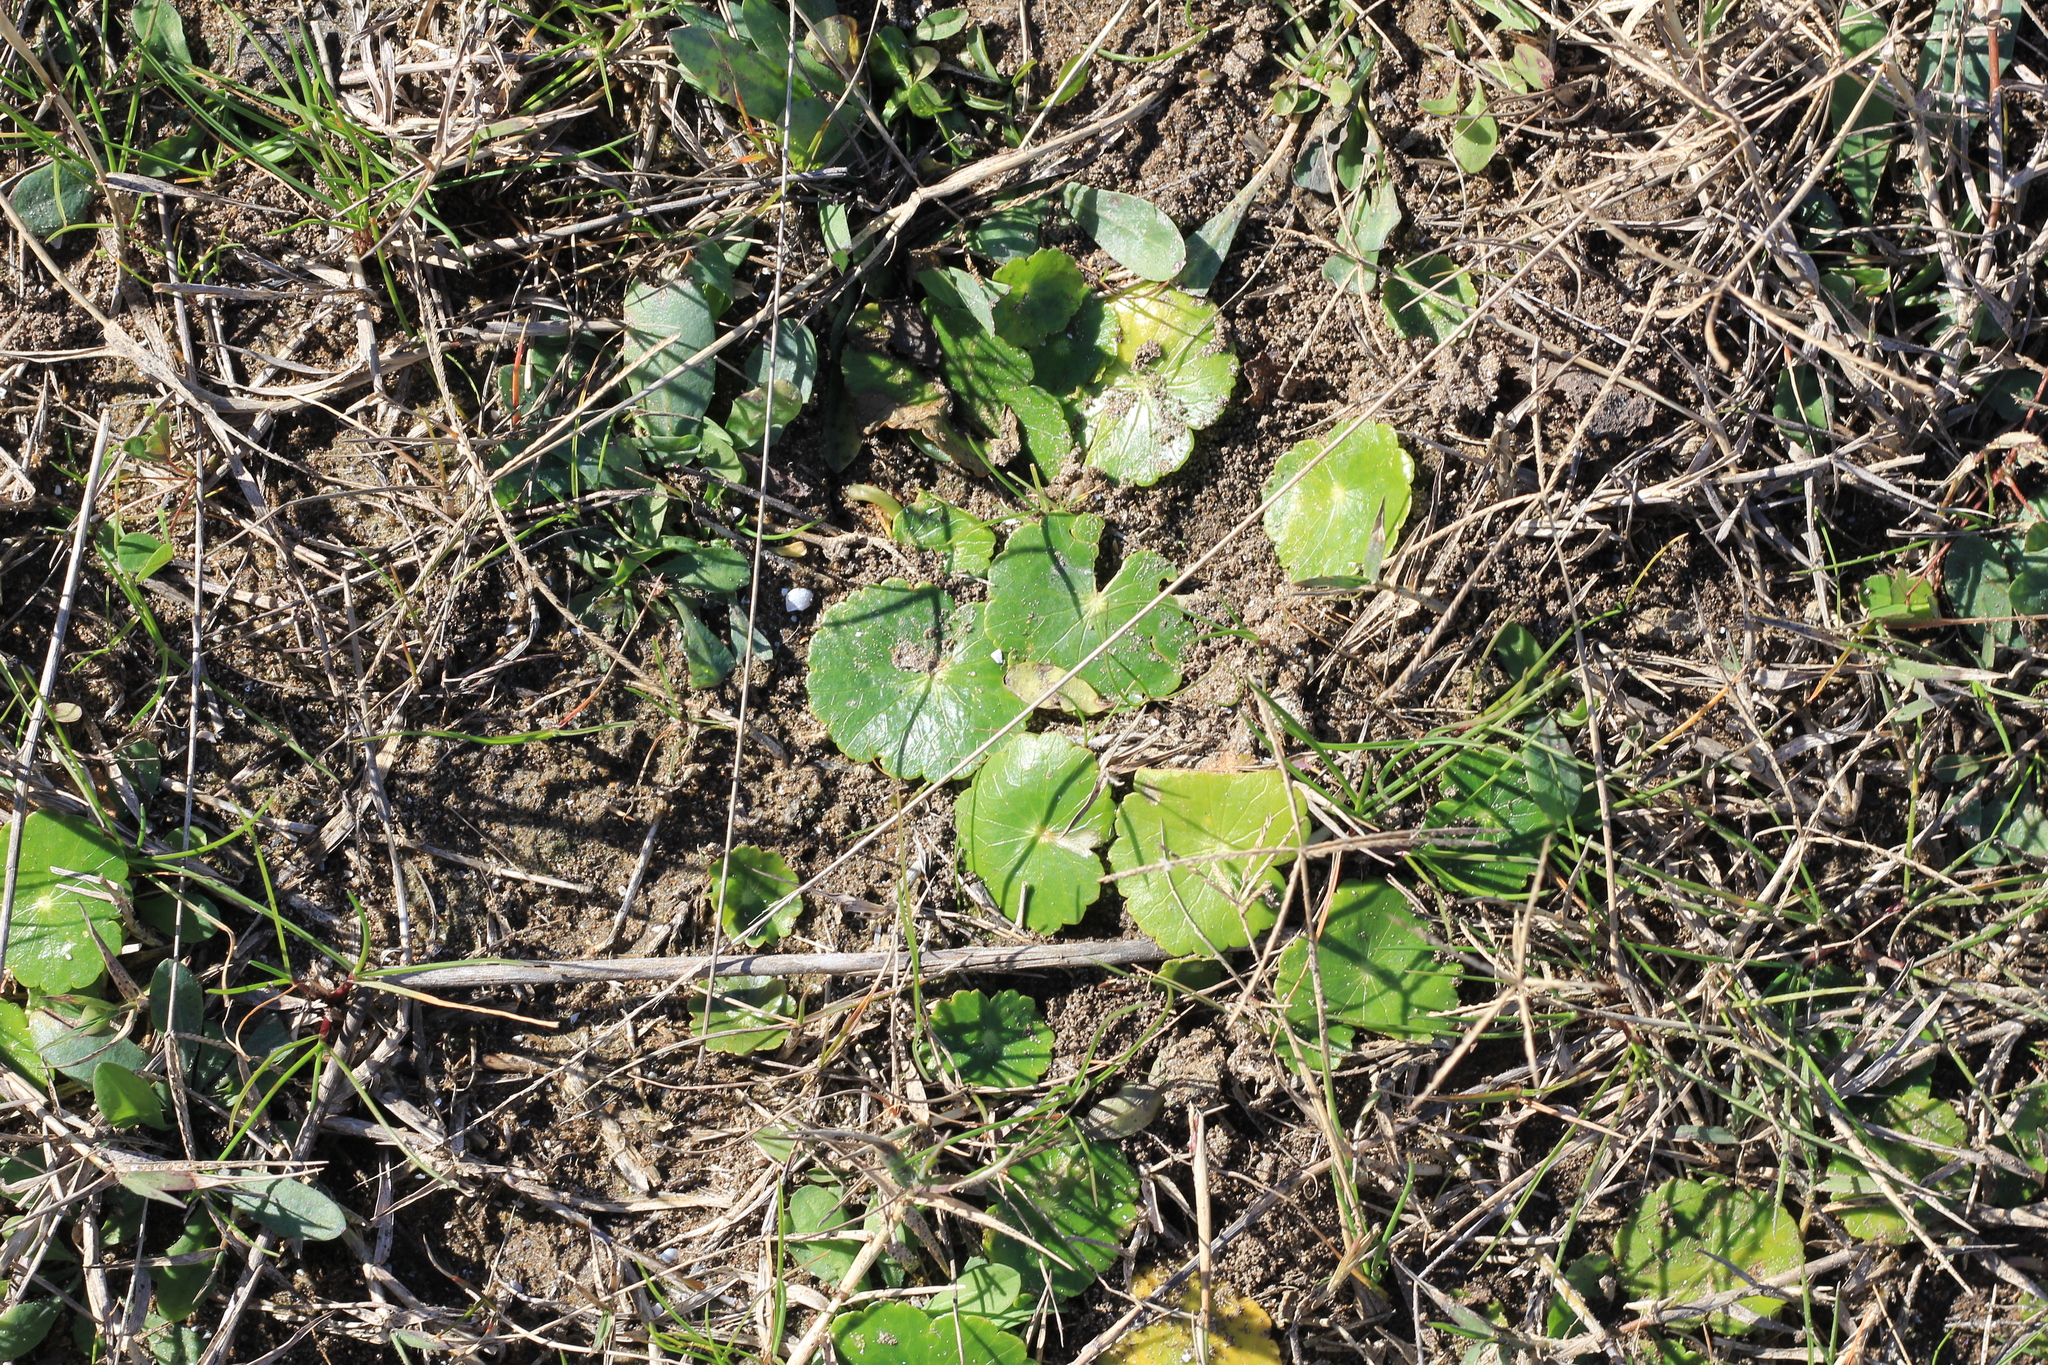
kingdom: Plantae
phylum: Tracheophyta
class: Magnoliopsida
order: Apiales
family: Araliaceae
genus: Hydrocotyle
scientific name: Hydrocotyle bonariensis
